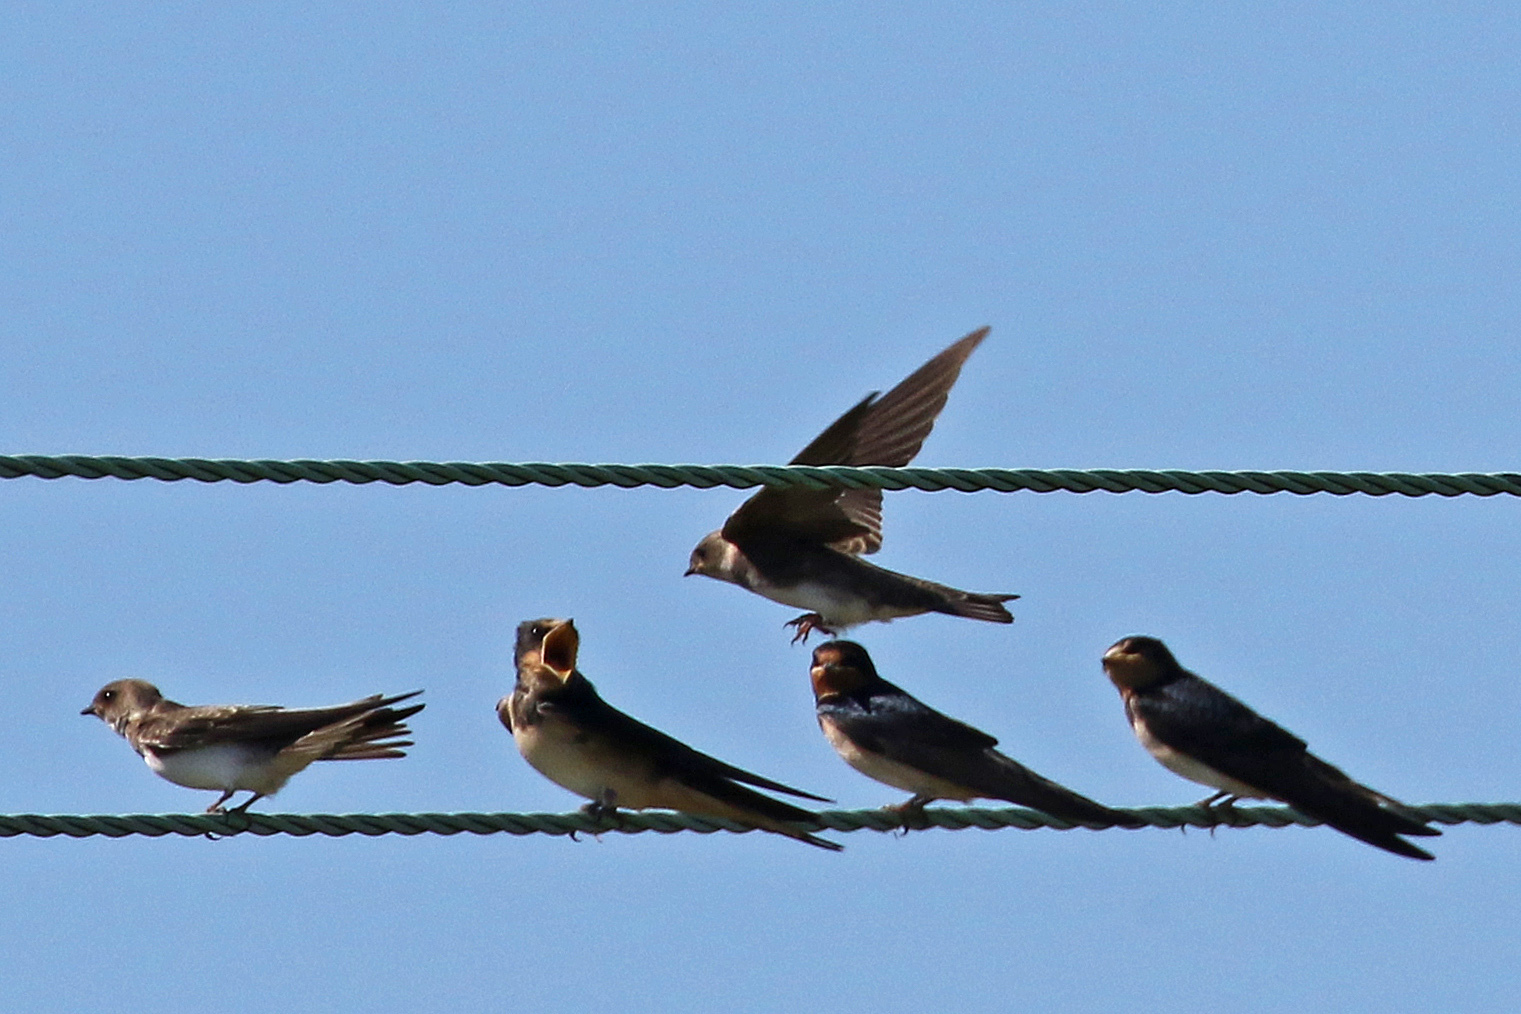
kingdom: Animalia
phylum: Chordata
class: Aves
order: Passeriformes
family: Hirundinidae
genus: Hirundo
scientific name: Hirundo rustica
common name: Barn swallow
